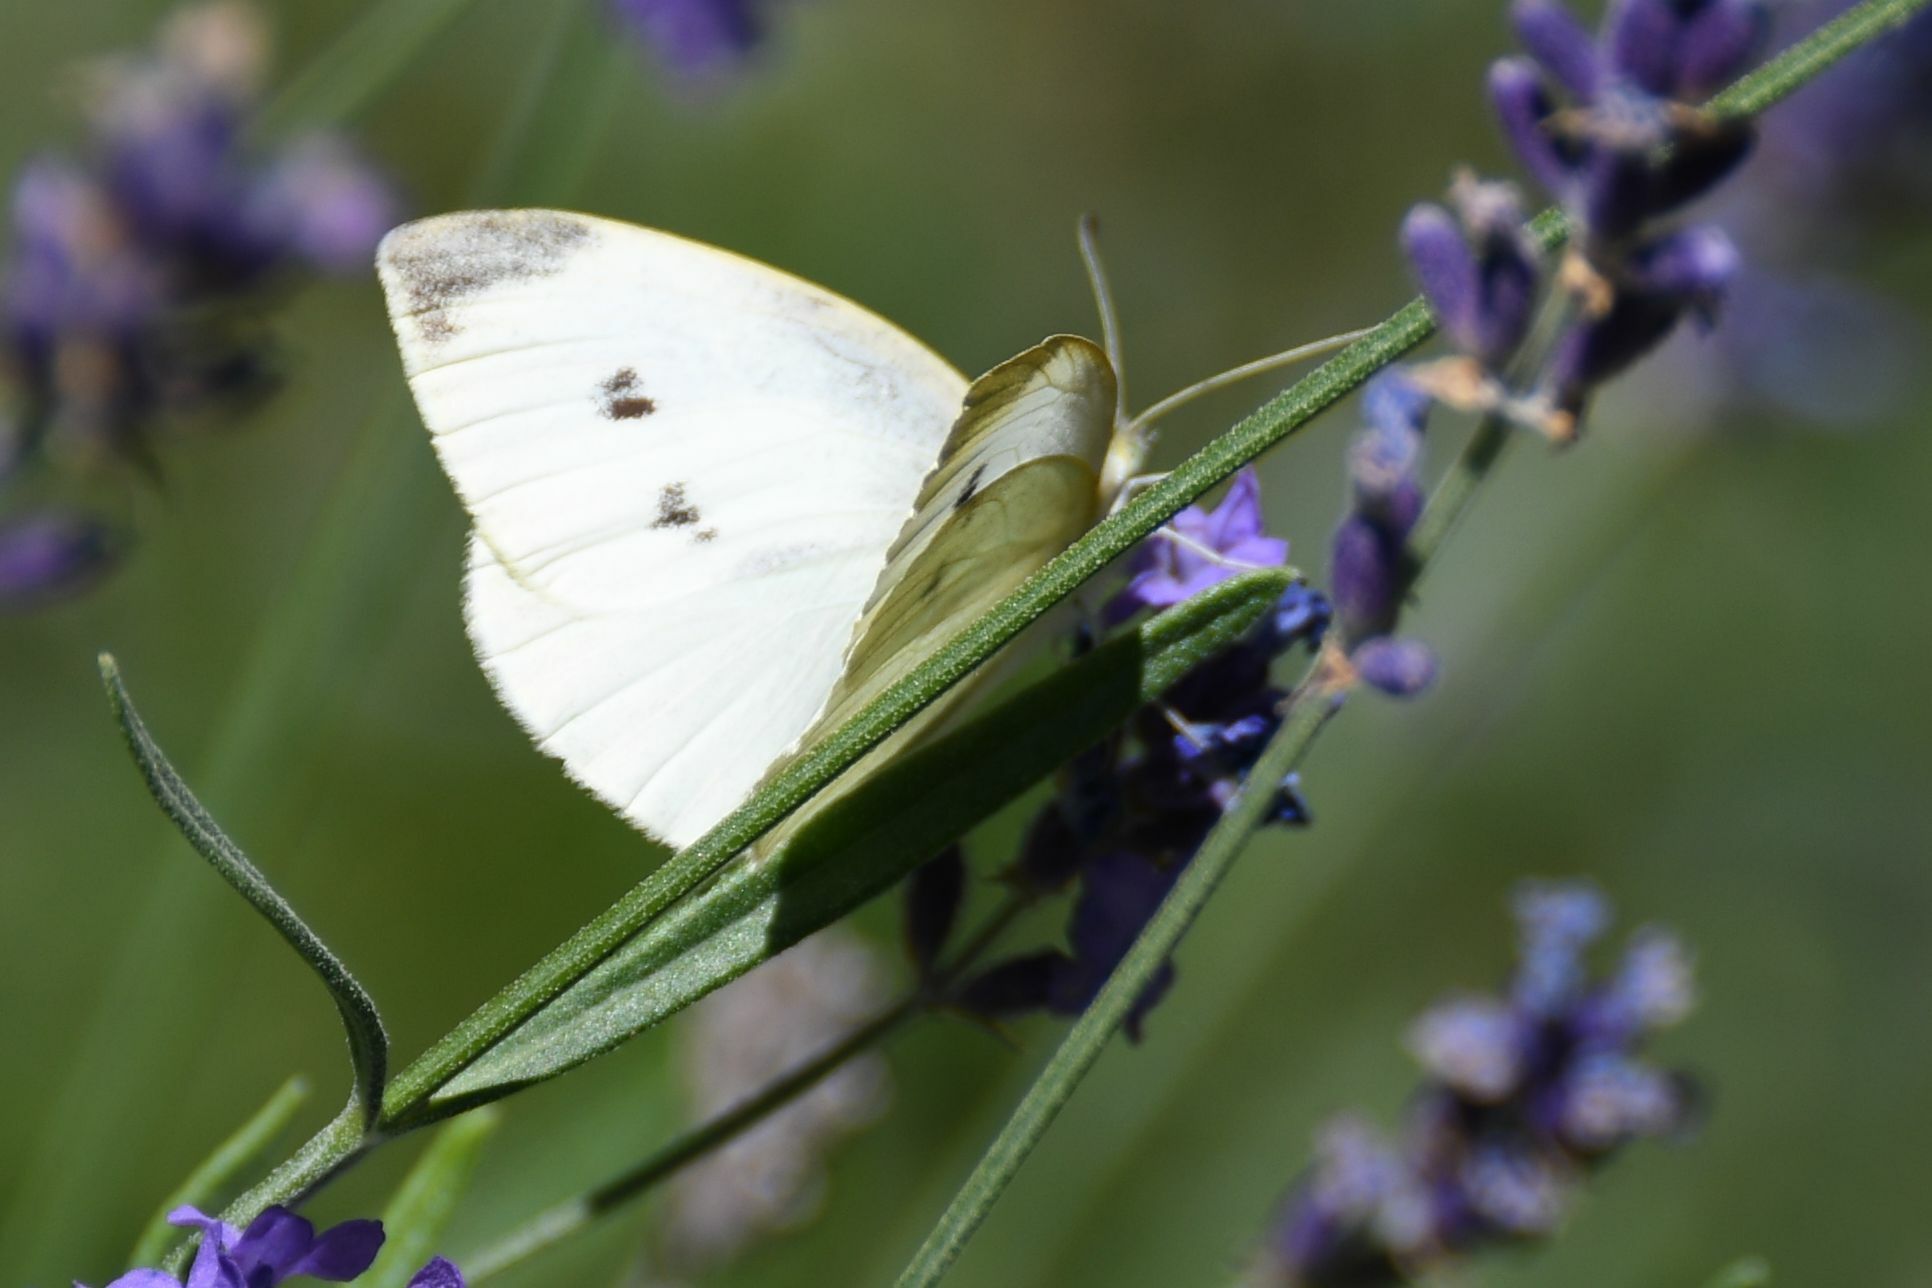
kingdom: Animalia
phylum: Arthropoda
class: Insecta
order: Lepidoptera
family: Pieridae
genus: Pieris
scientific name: Pieris rapae
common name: Small white
